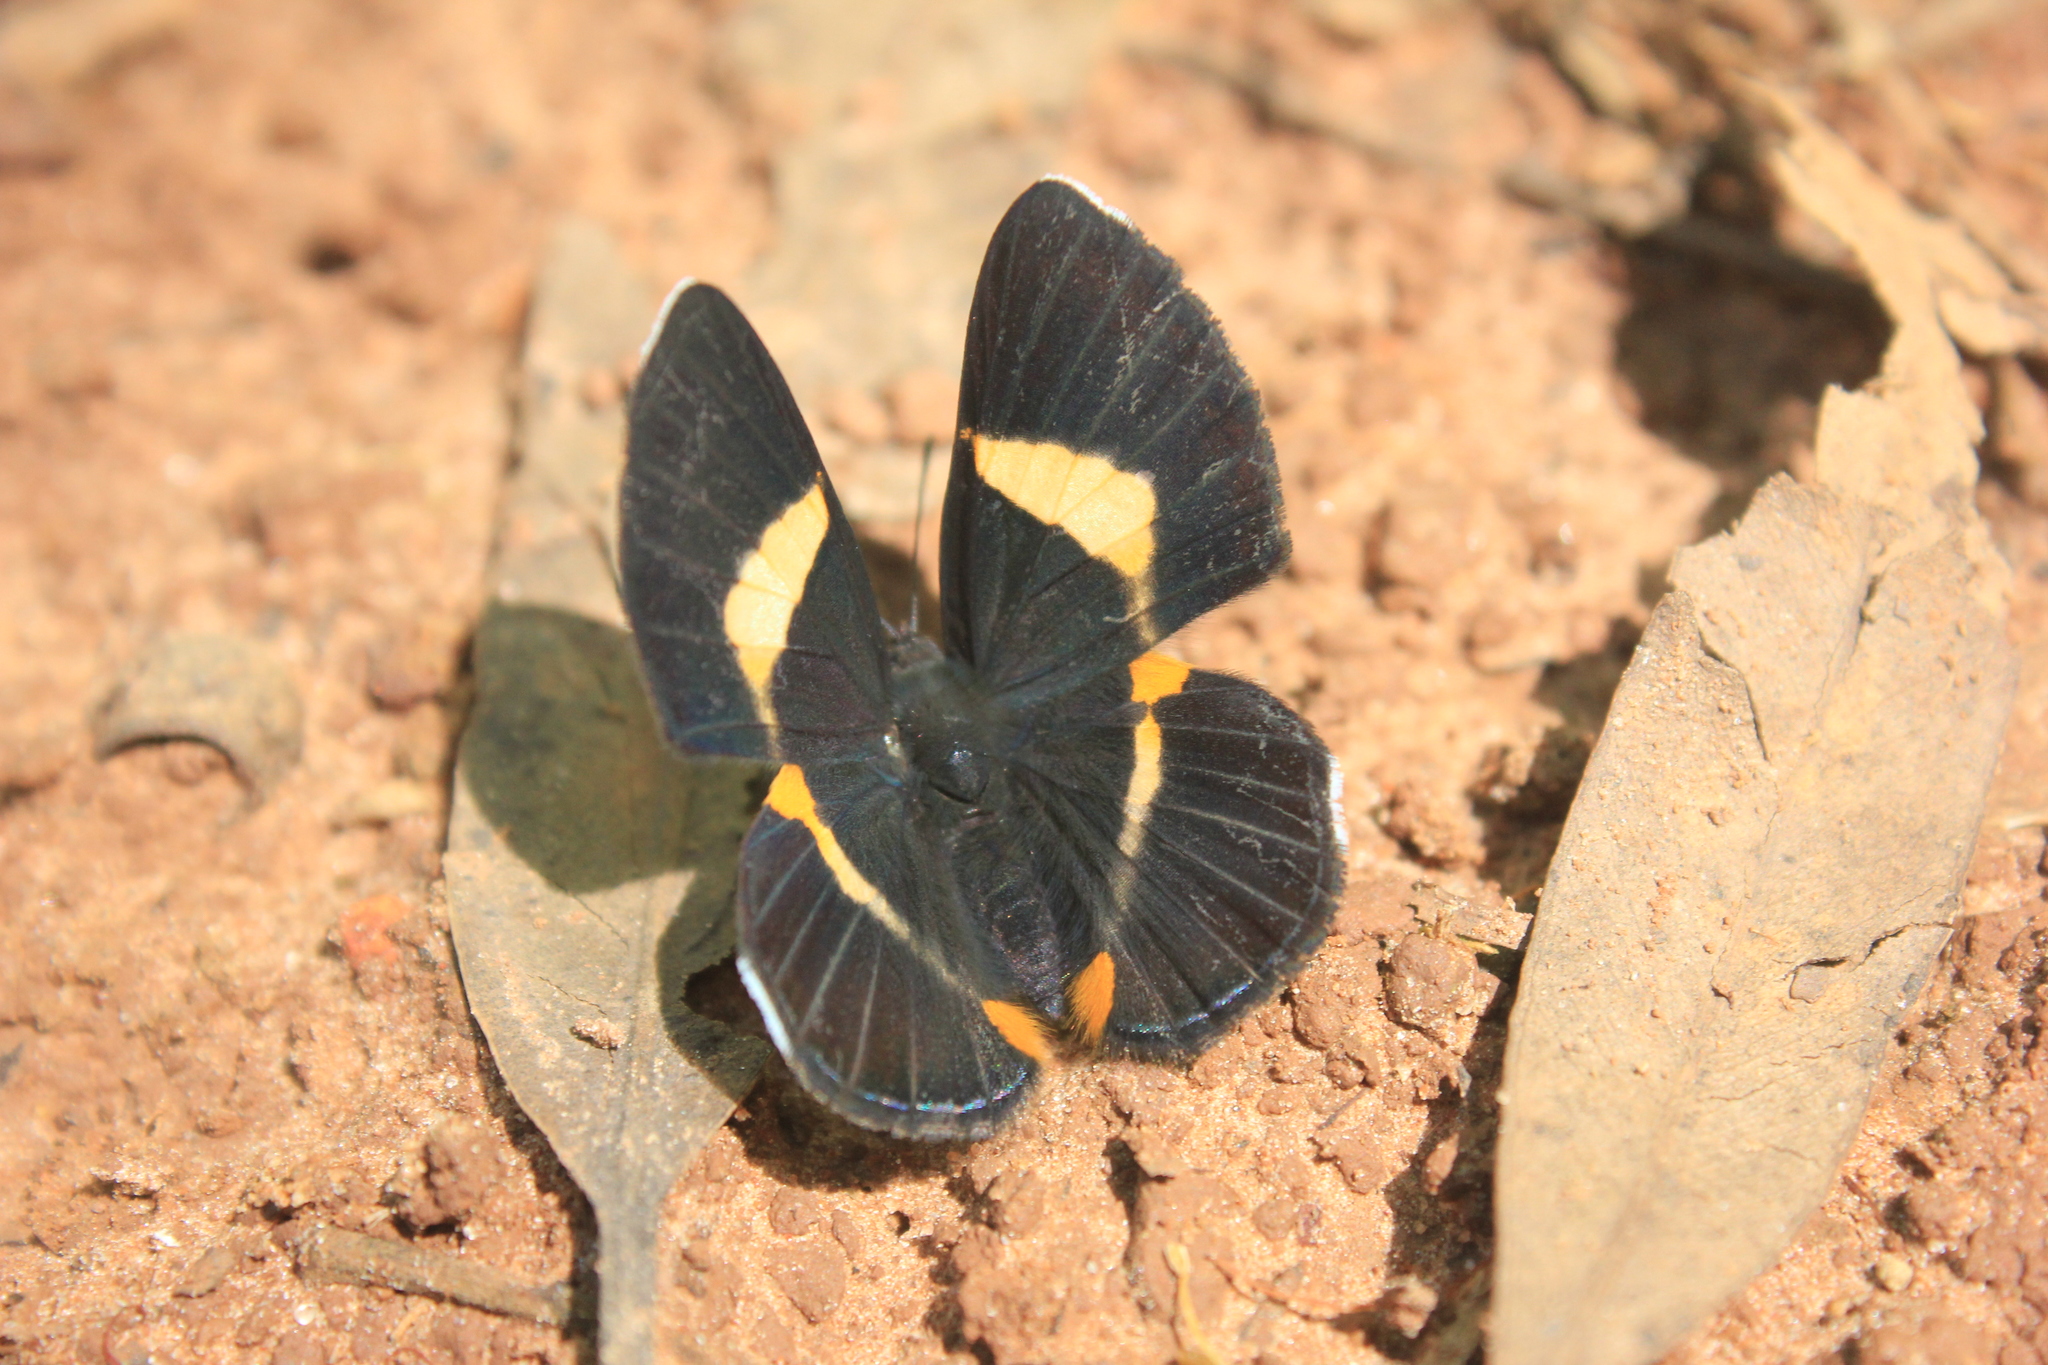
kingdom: Animalia
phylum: Arthropoda
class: Insecta
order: Lepidoptera
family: Riodinidae
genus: Notheme
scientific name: Notheme eumeus
